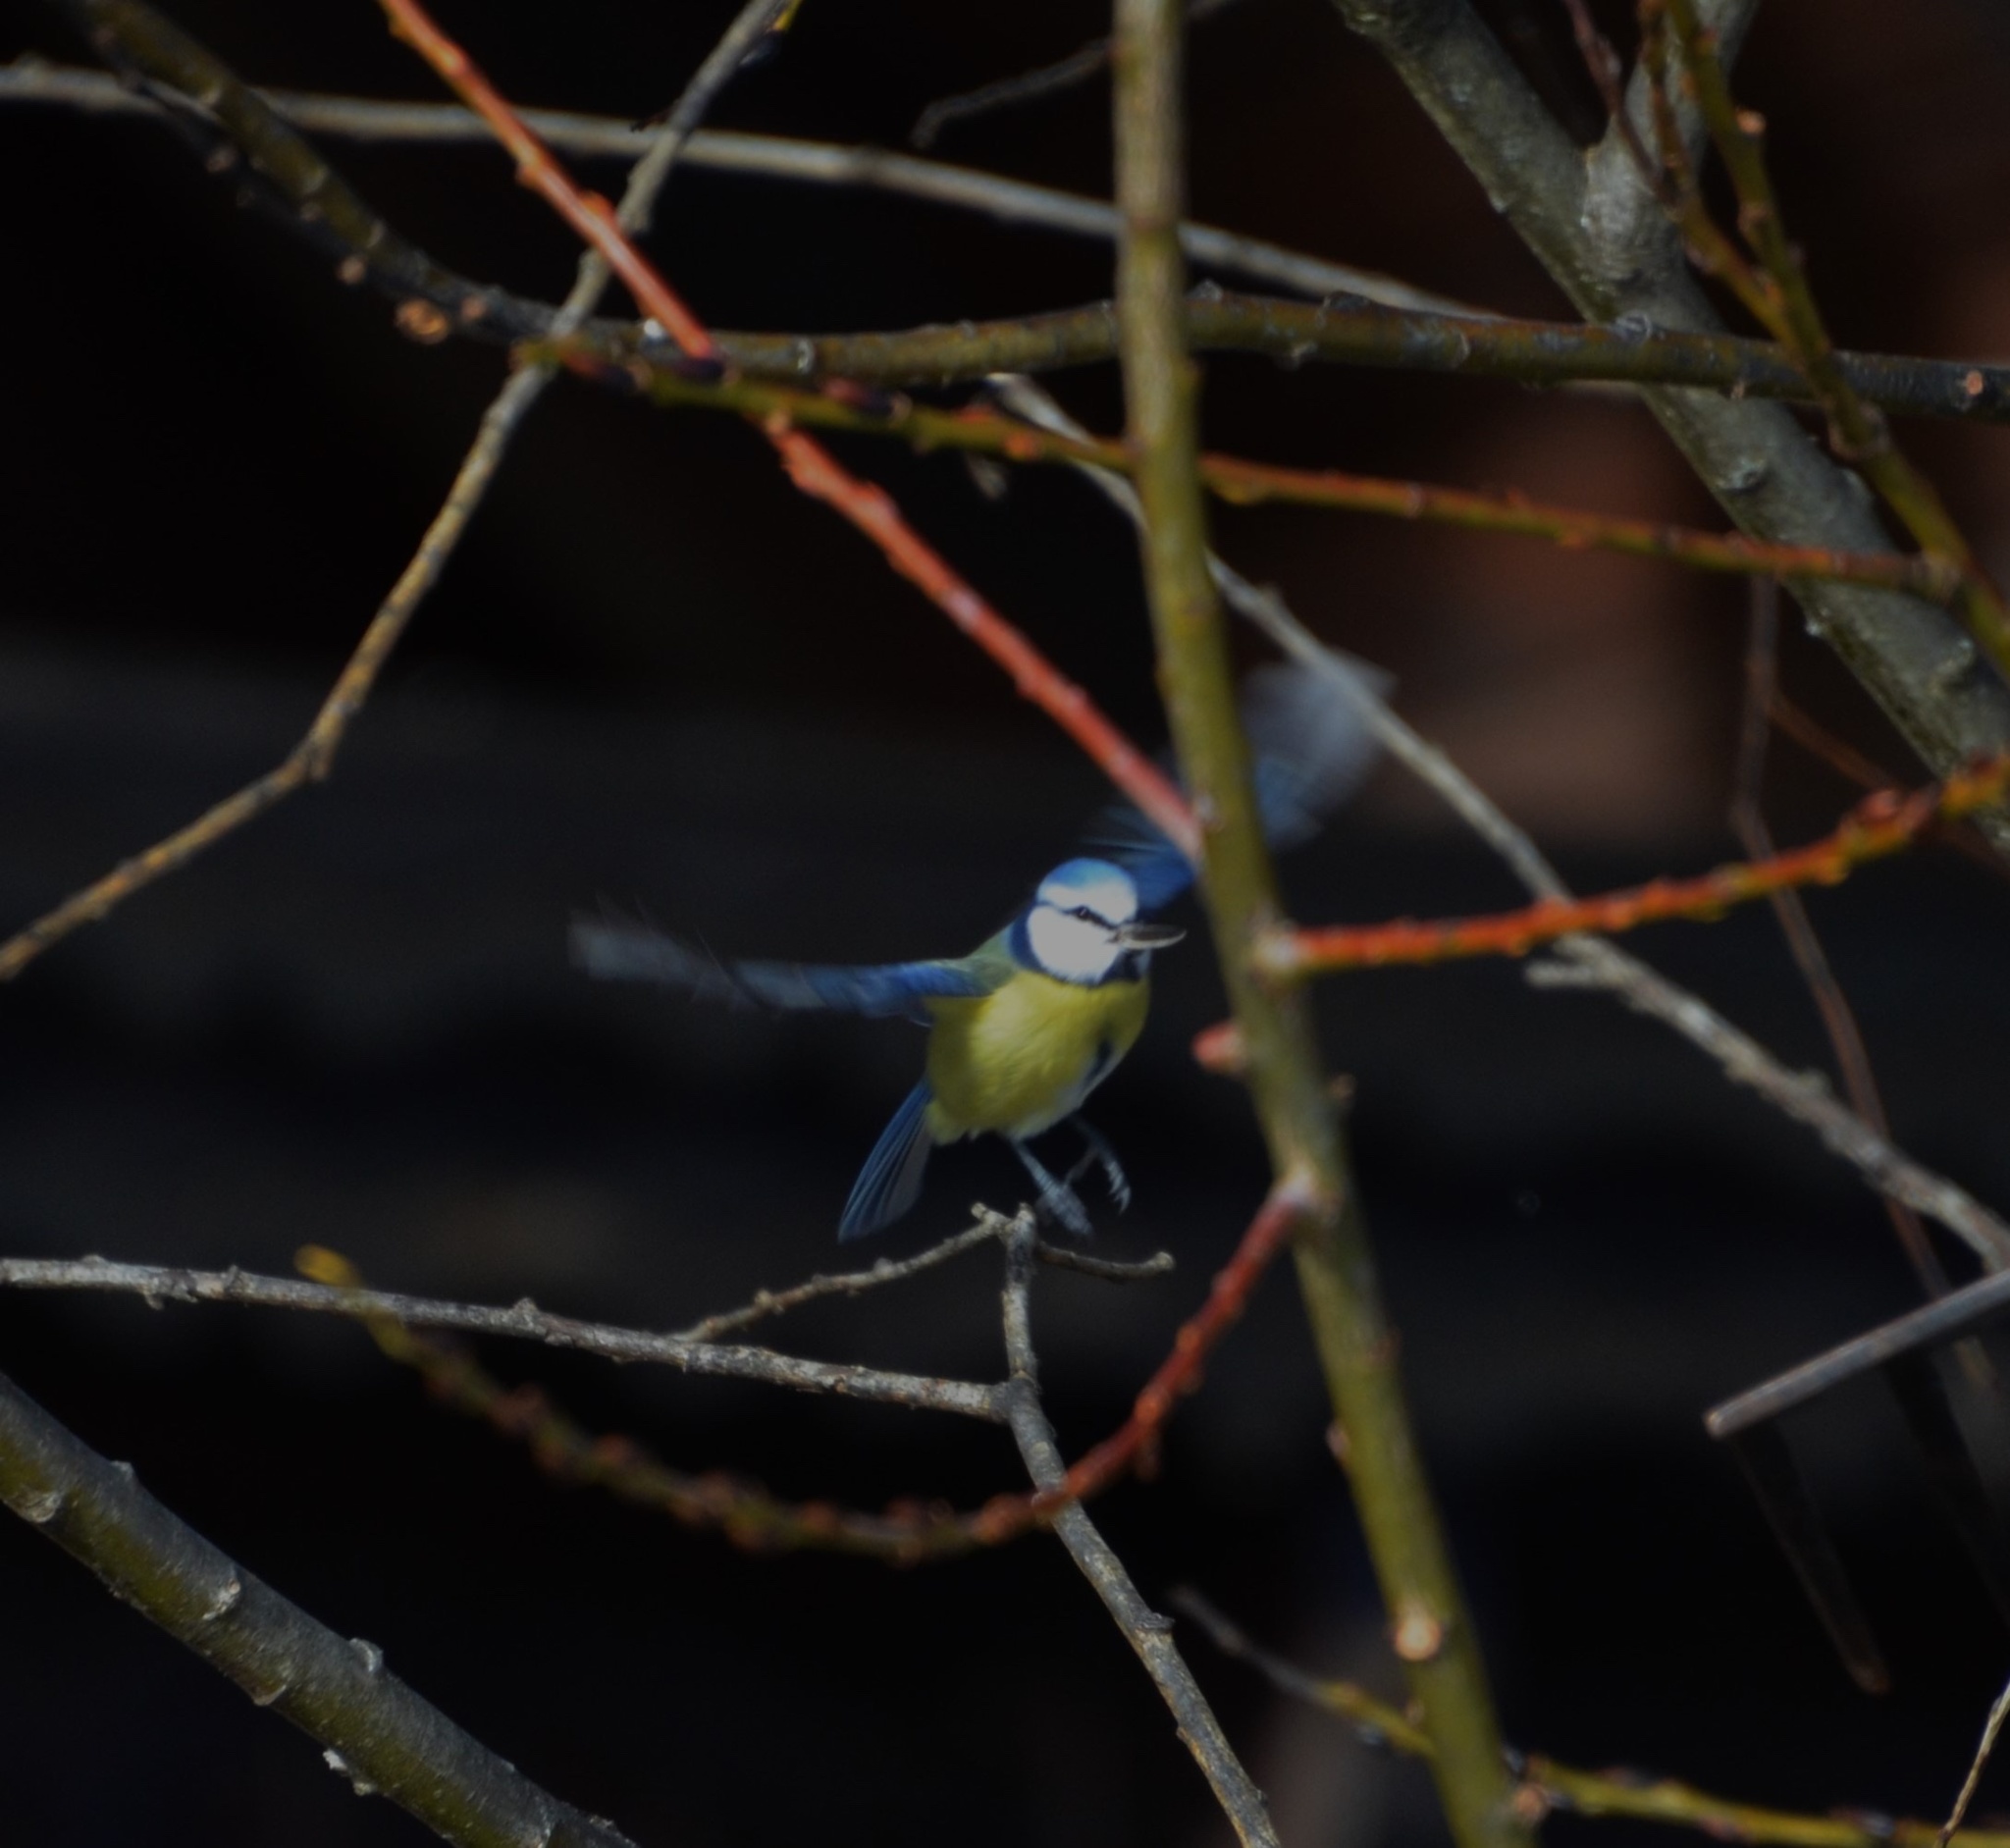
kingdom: Animalia
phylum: Chordata
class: Aves
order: Passeriformes
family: Paridae
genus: Cyanistes
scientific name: Cyanistes caeruleus
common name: Eurasian blue tit
